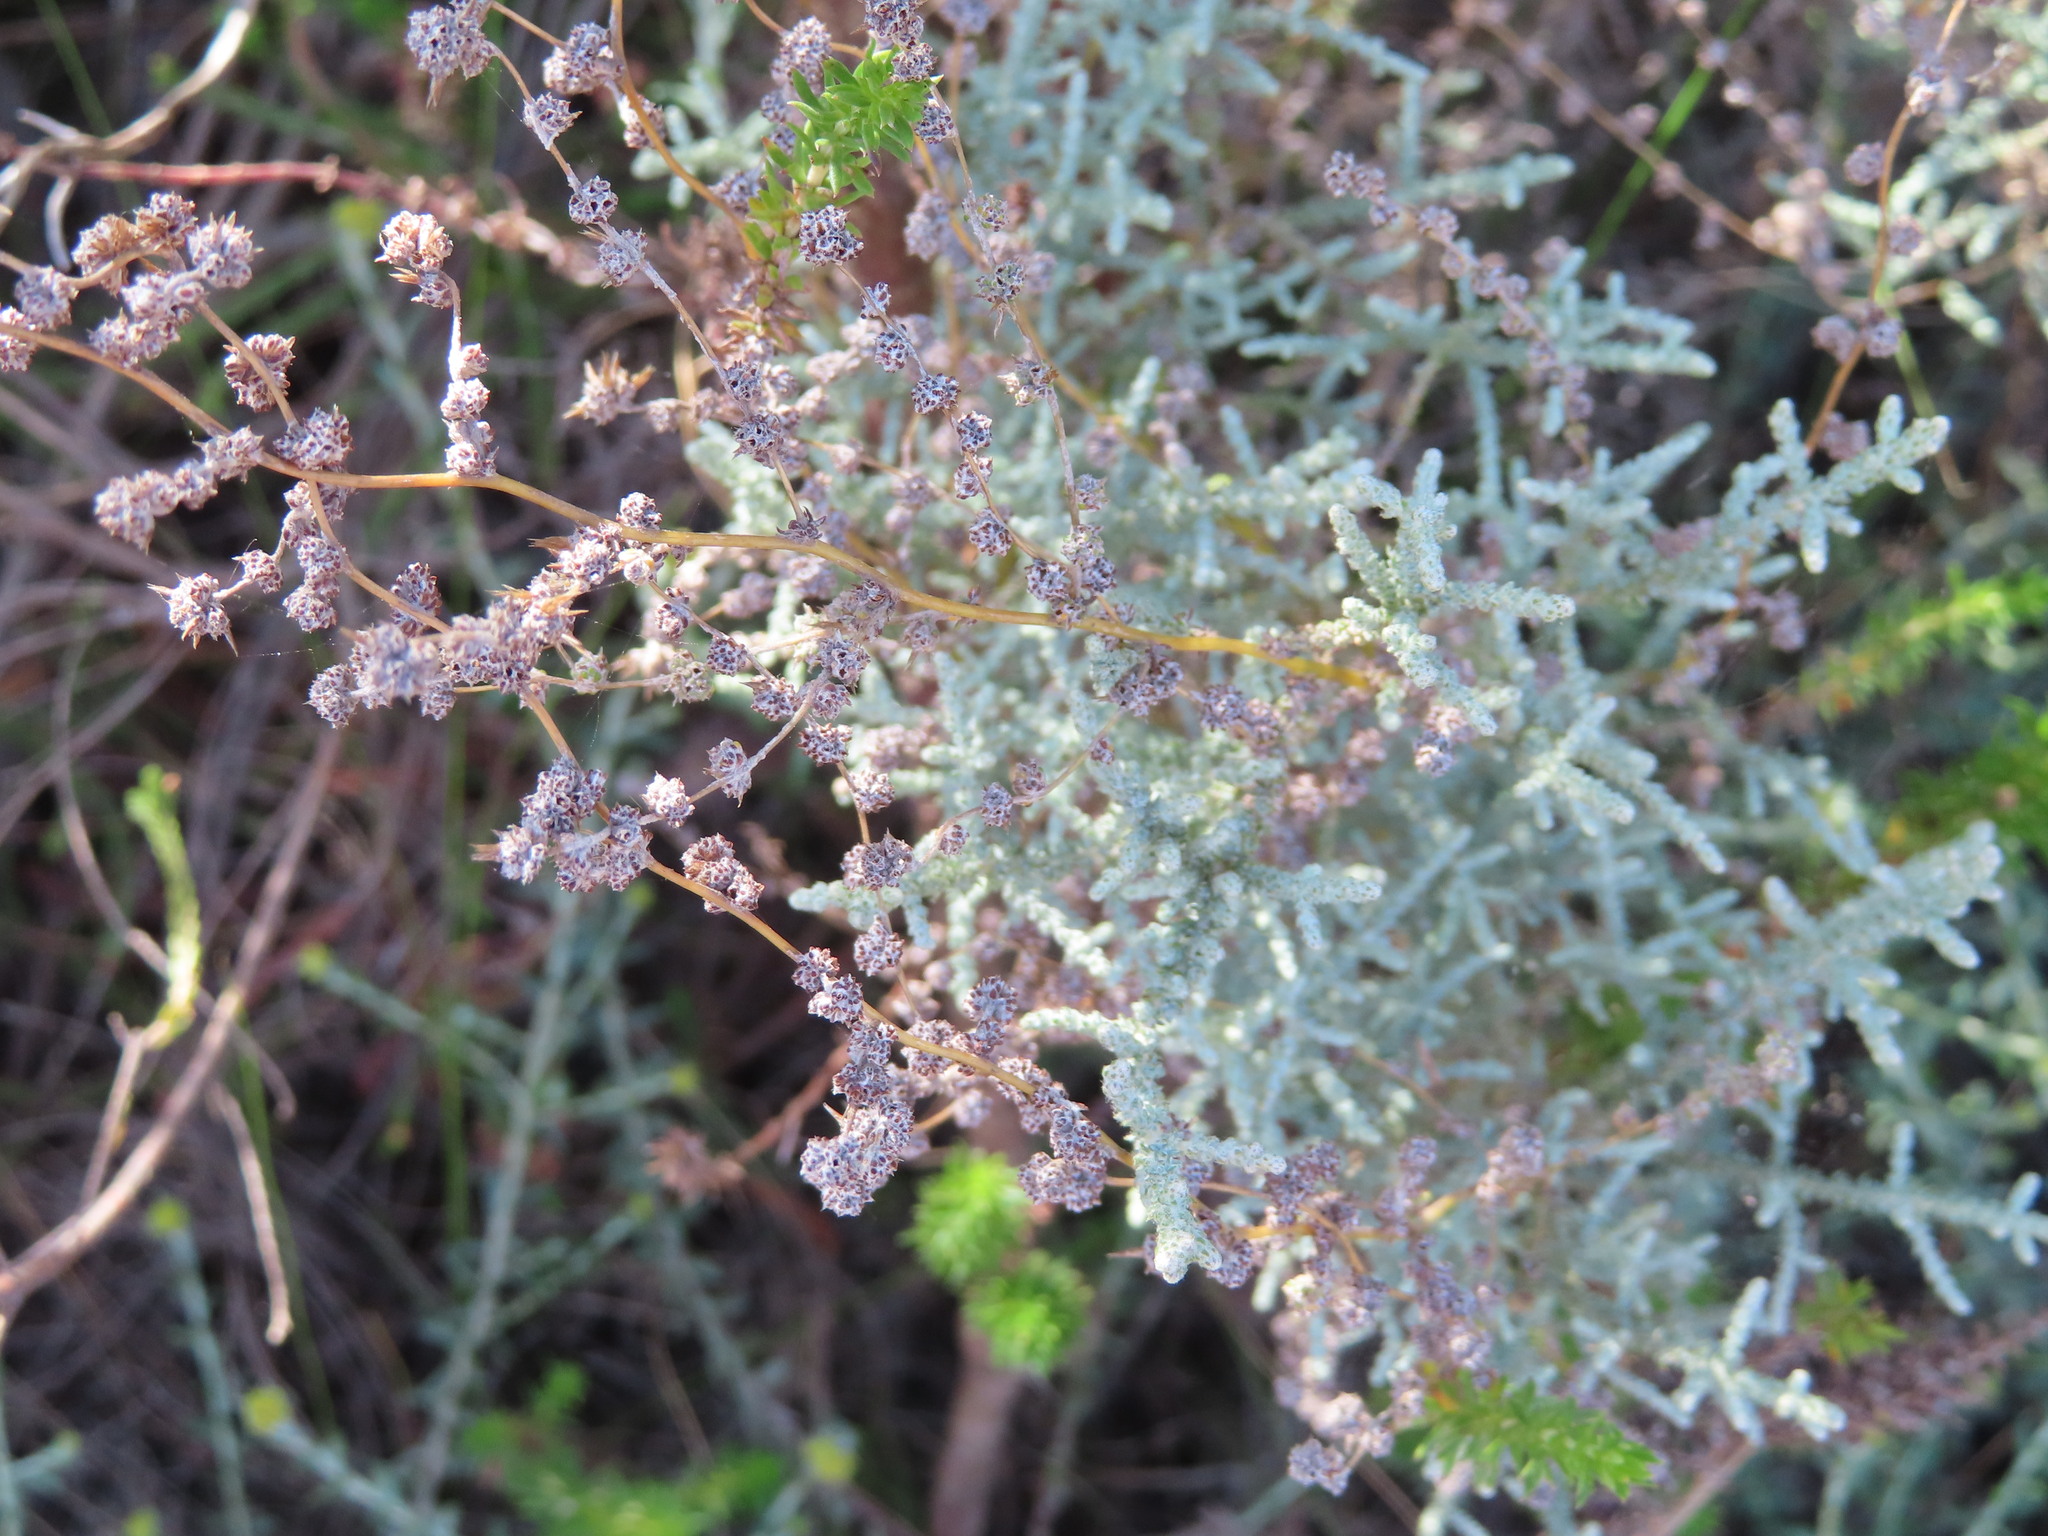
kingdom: Plantae
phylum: Tracheophyta
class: Magnoliopsida
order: Asterales
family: Asteraceae
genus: Seriphium
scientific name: Seriphium plumosum
